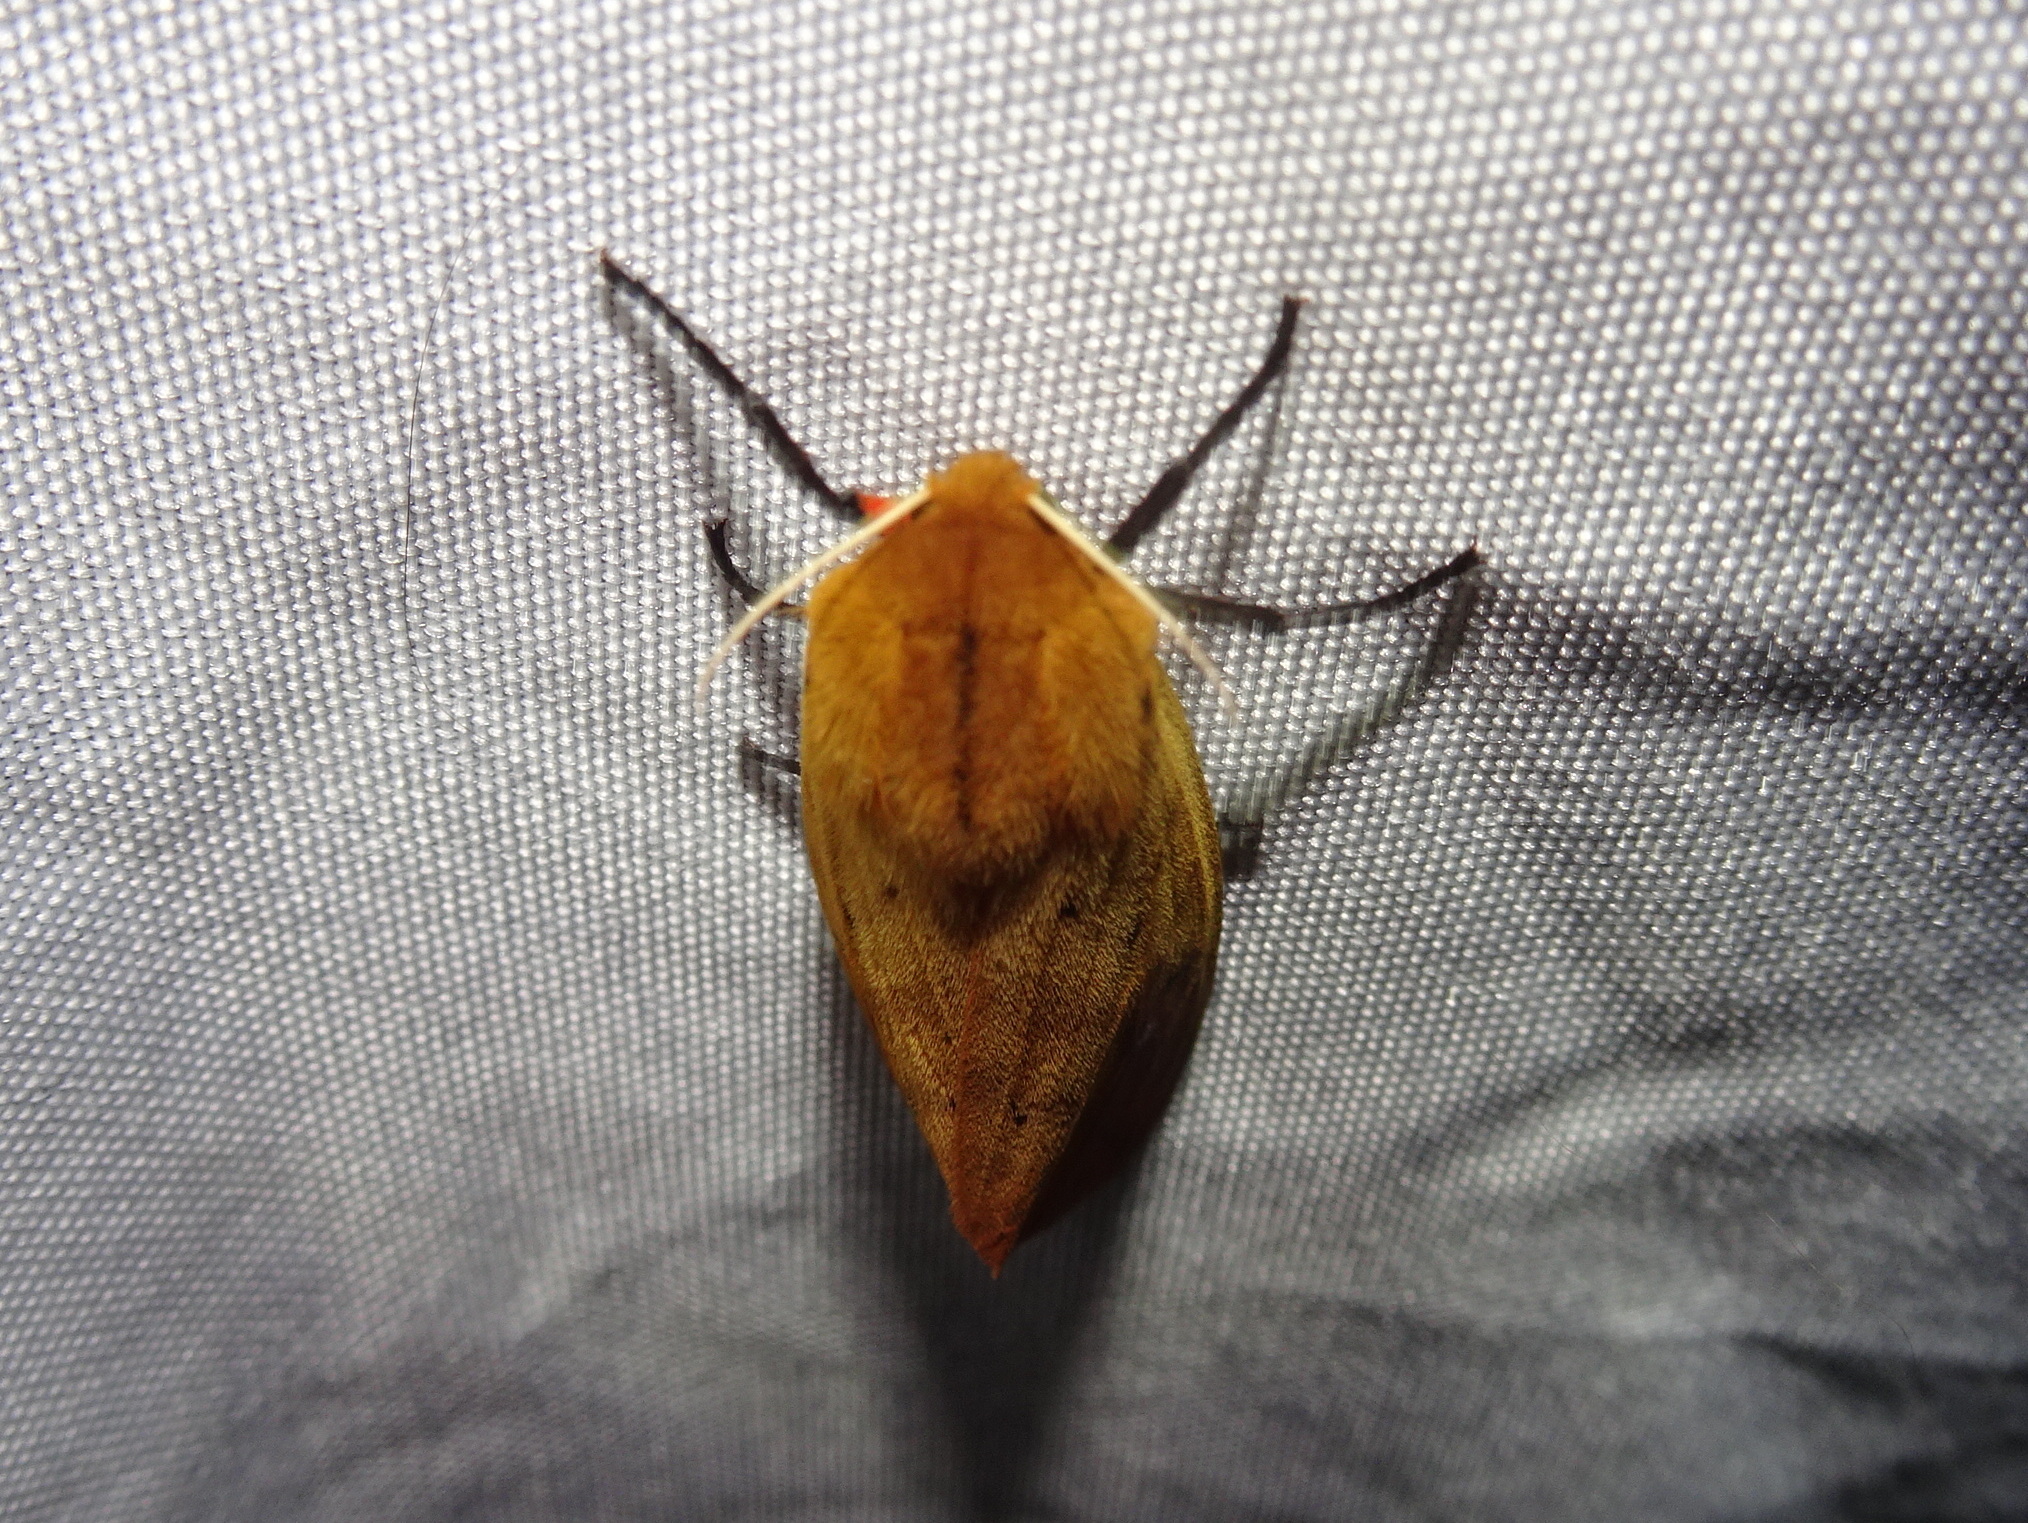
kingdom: Animalia
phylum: Arthropoda
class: Insecta
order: Lepidoptera
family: Erebidae
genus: Pyrrharctia
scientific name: Pyrrharctia isabella
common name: Isabella tiger moth
